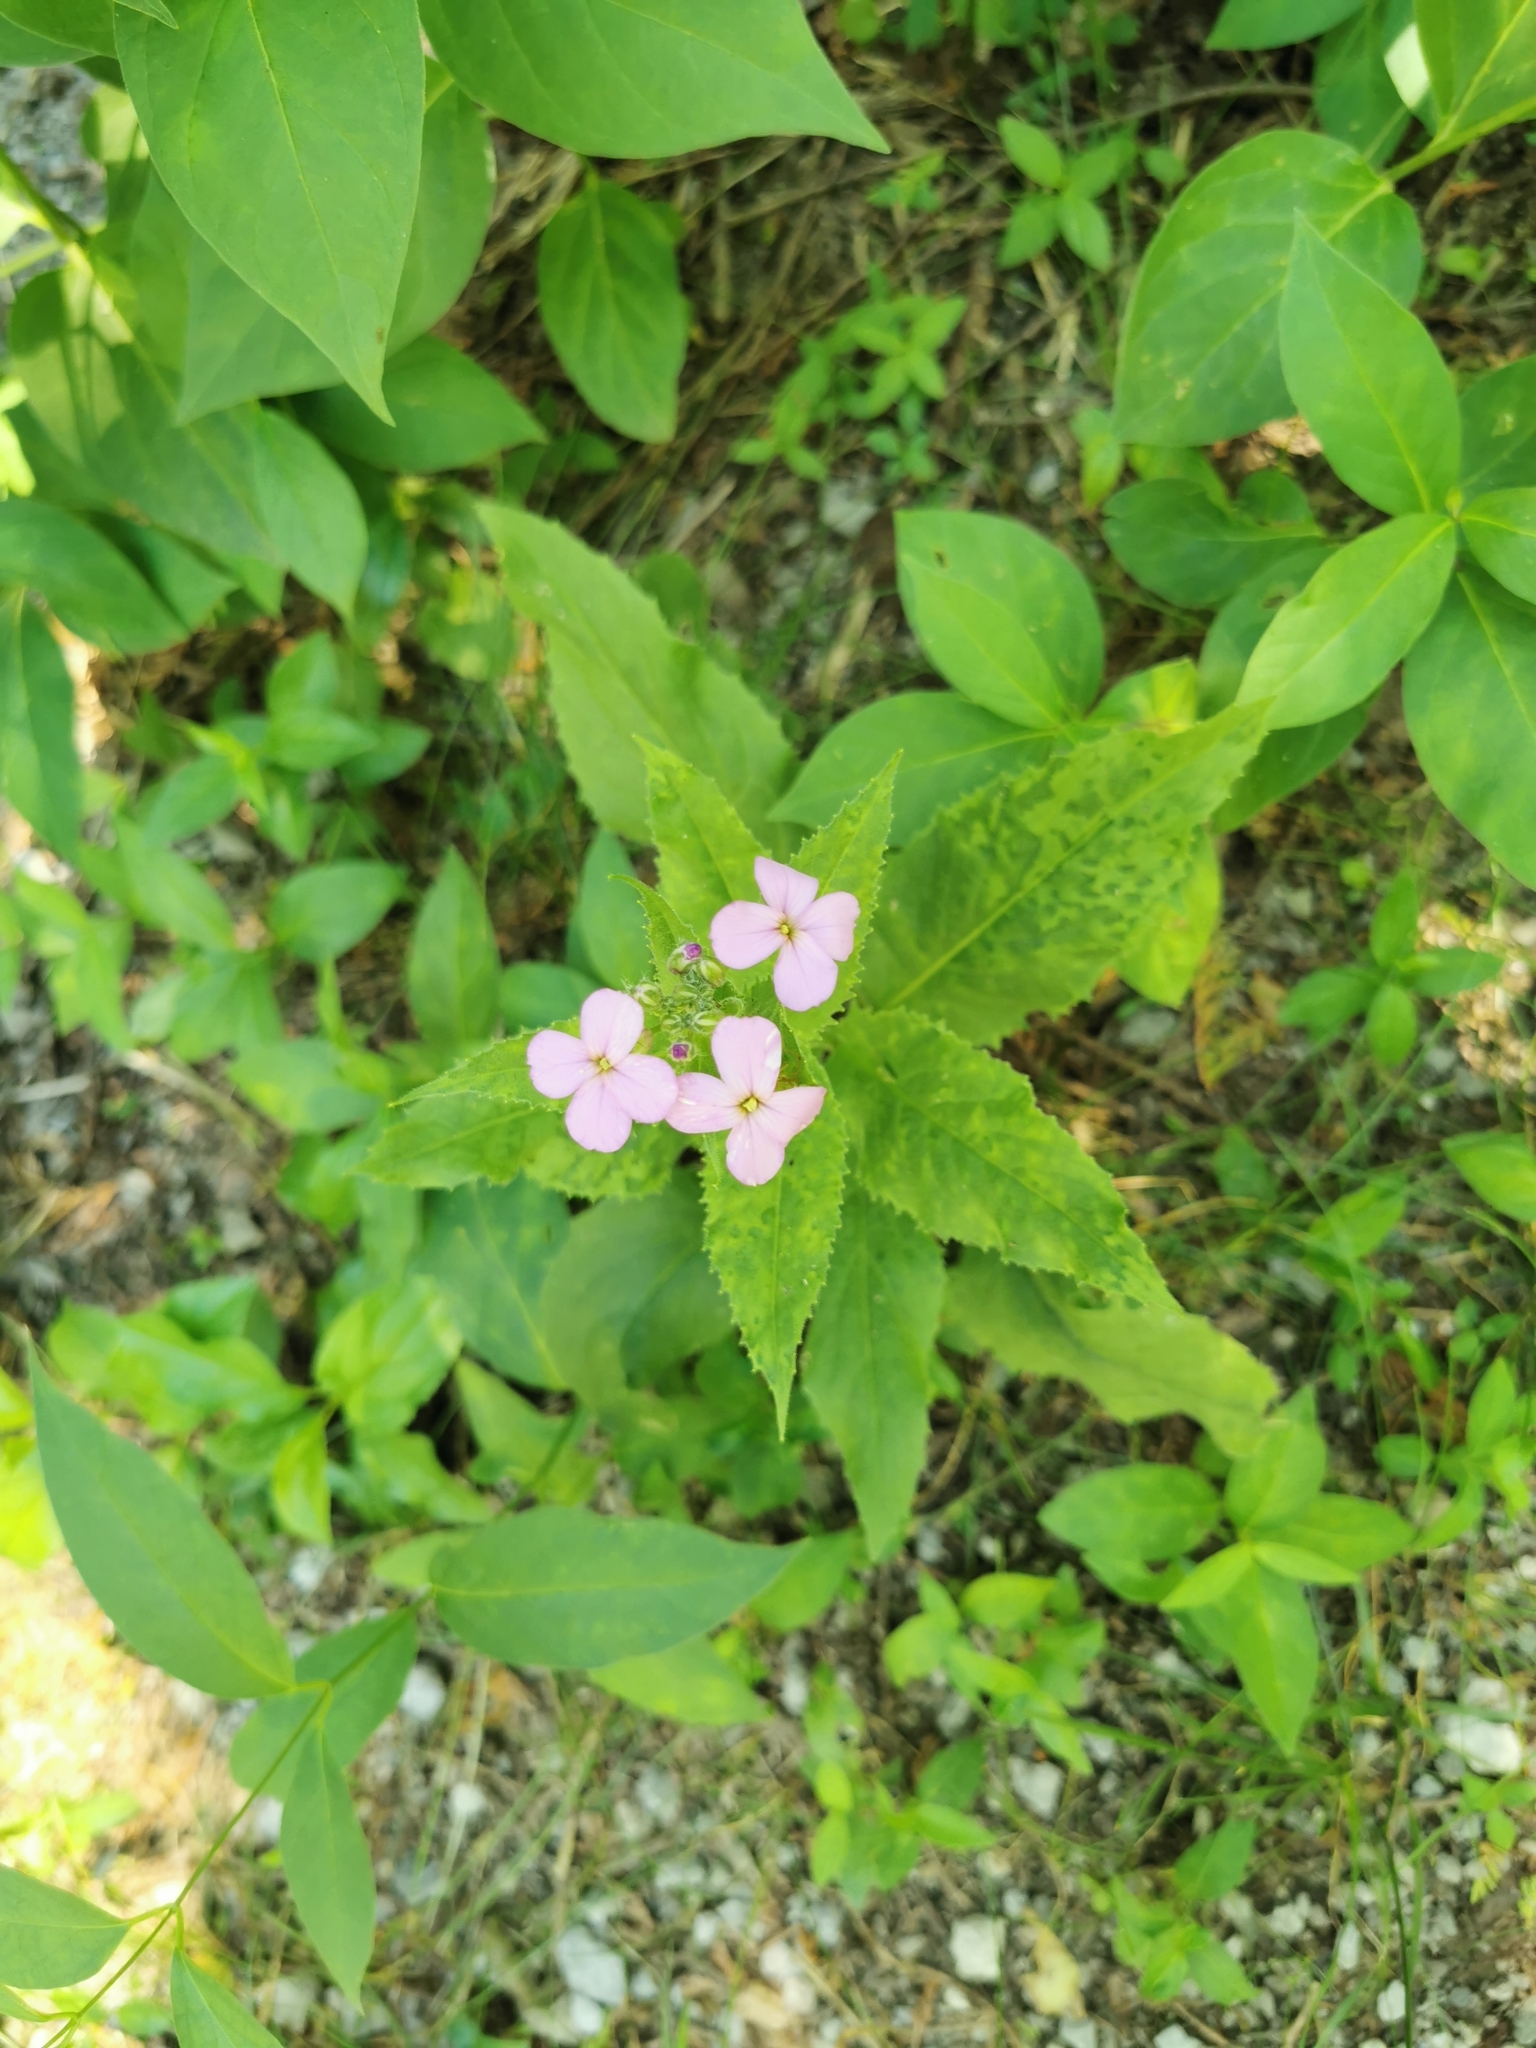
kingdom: Plantae
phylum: Tracheophyta
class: Magnoliopsida
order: Brassicales
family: Brassicaceae
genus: Hesperis
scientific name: Hesperis matronalis
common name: Dame's-violet
